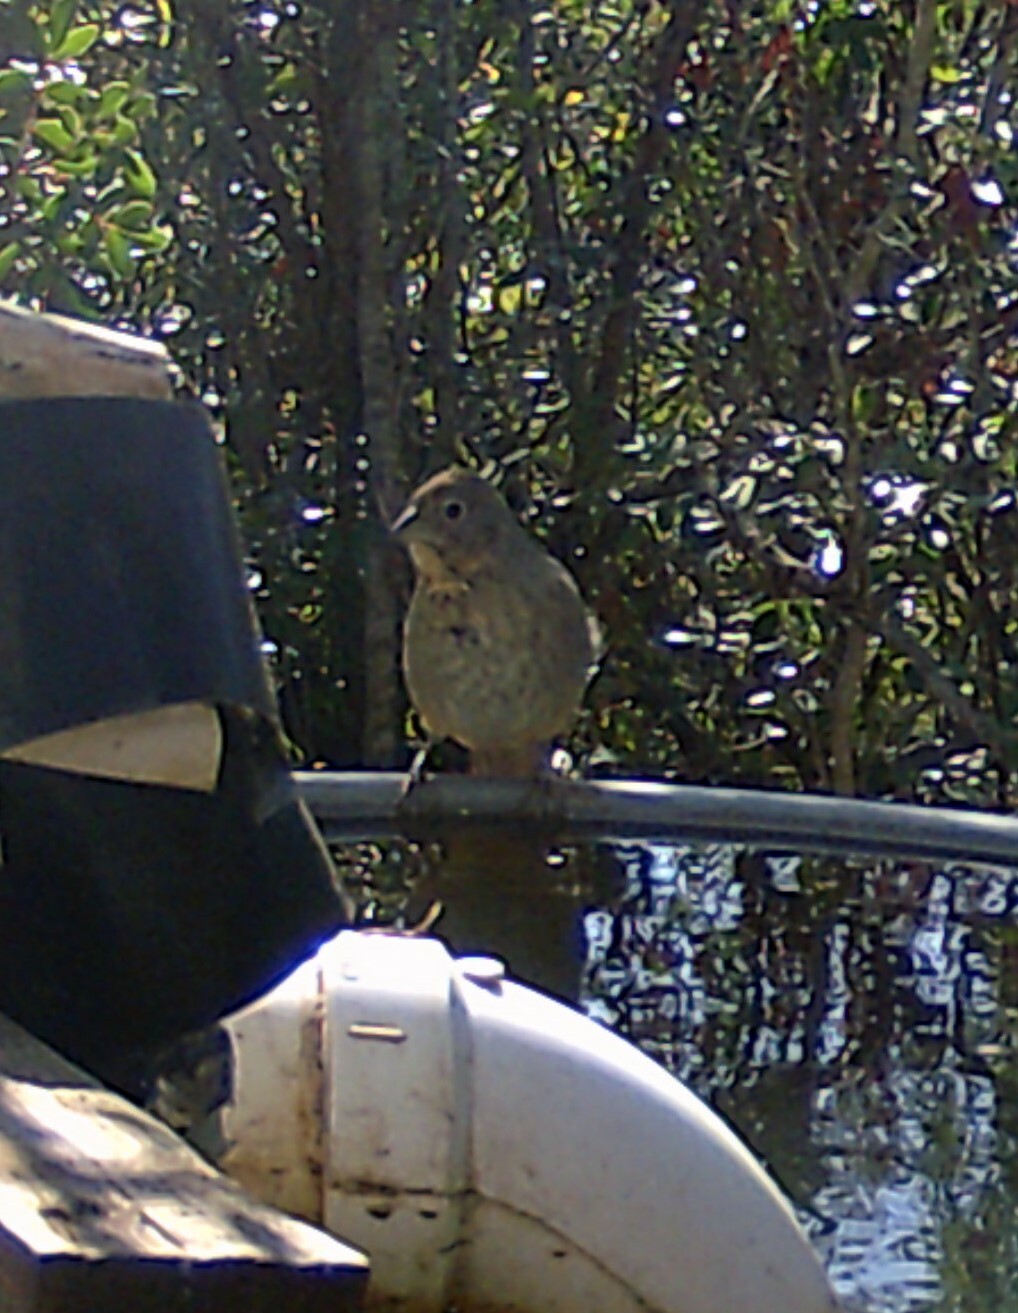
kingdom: Animalia
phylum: Chordata
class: Aves
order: Passeriformes
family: Passerellidae
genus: Melozone
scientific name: Melozone fusca
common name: Canyon towhee
